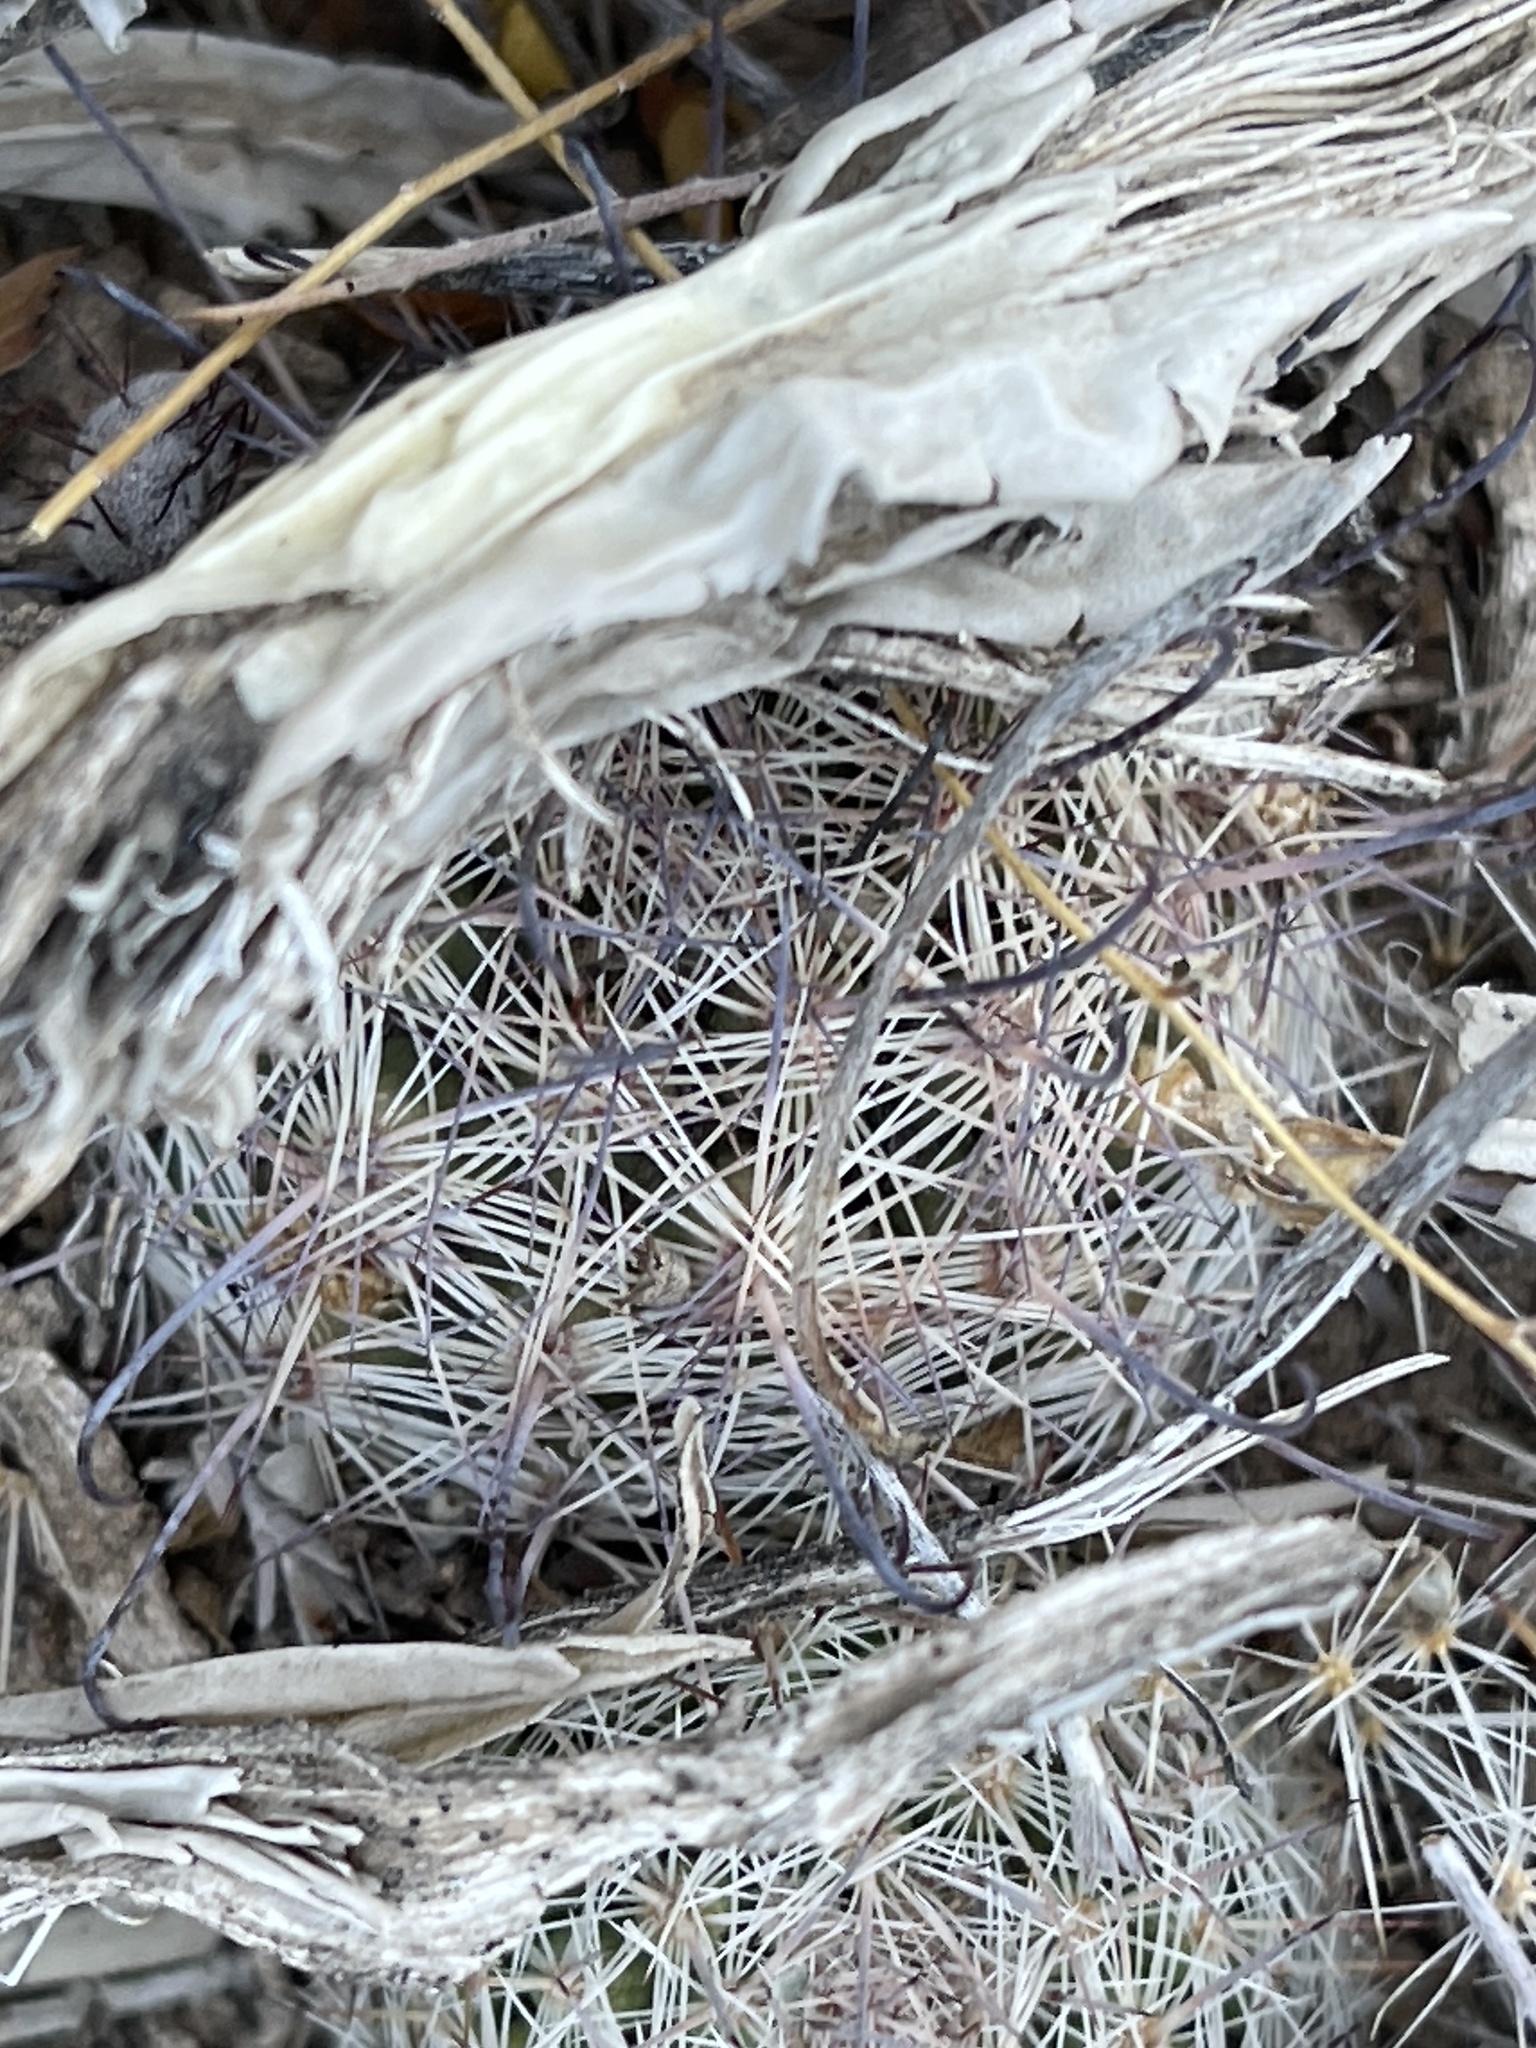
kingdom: Plantae
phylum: Tracheophyta
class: Magnoliopsida
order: Caryophyllales
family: Cactaceae
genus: Cochemiea
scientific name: Cochemiea grahamii
